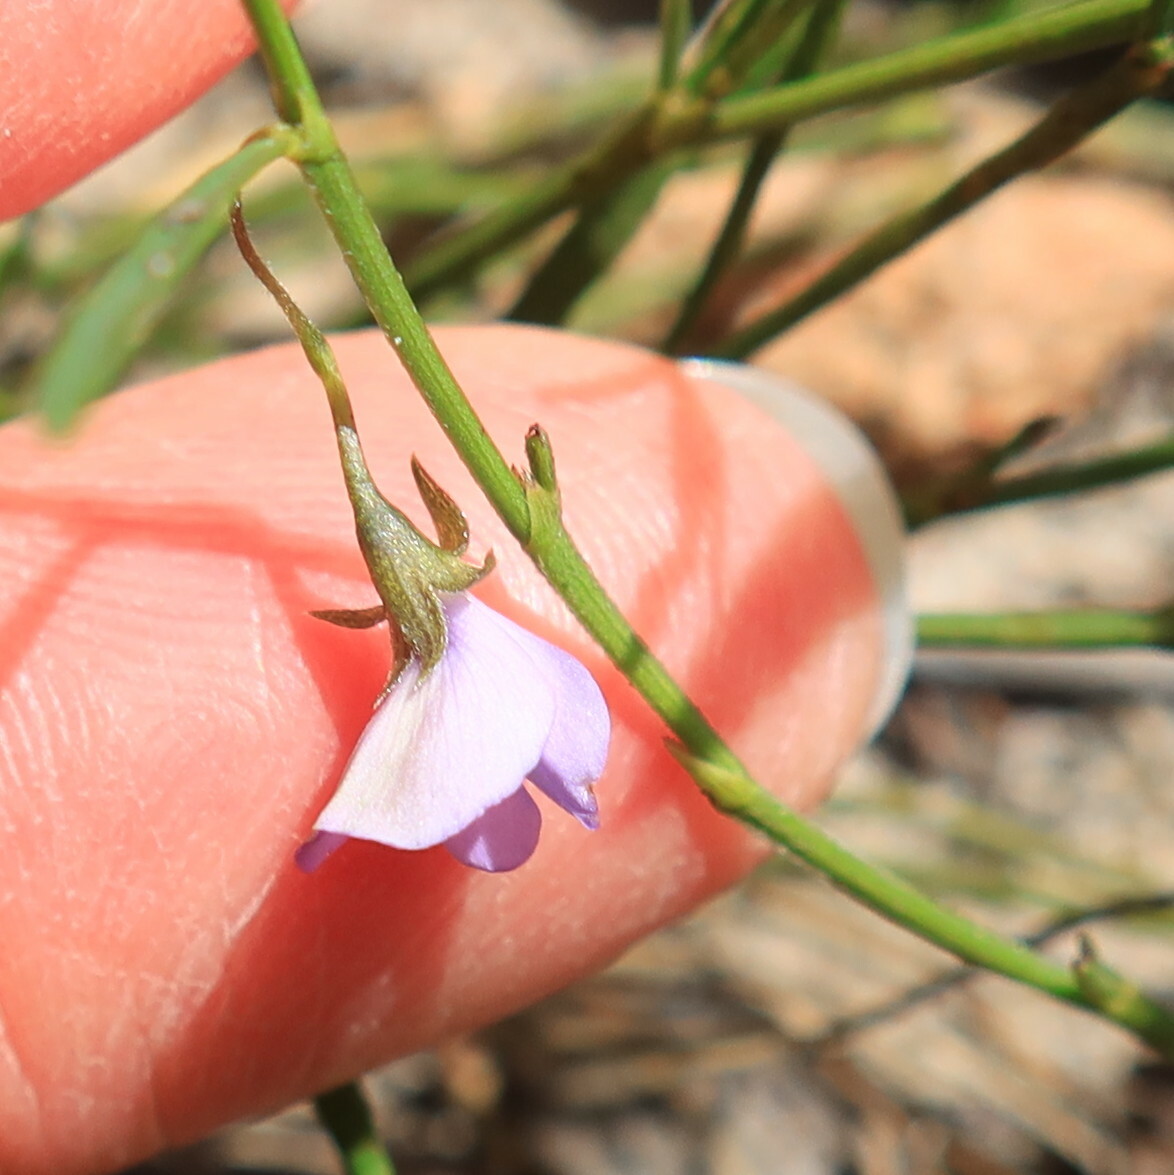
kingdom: Plantae
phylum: Tracheophyta
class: Magnoliopsida
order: Fabales
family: Fabaceae
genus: Psoralea
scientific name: Psoralea laxa
